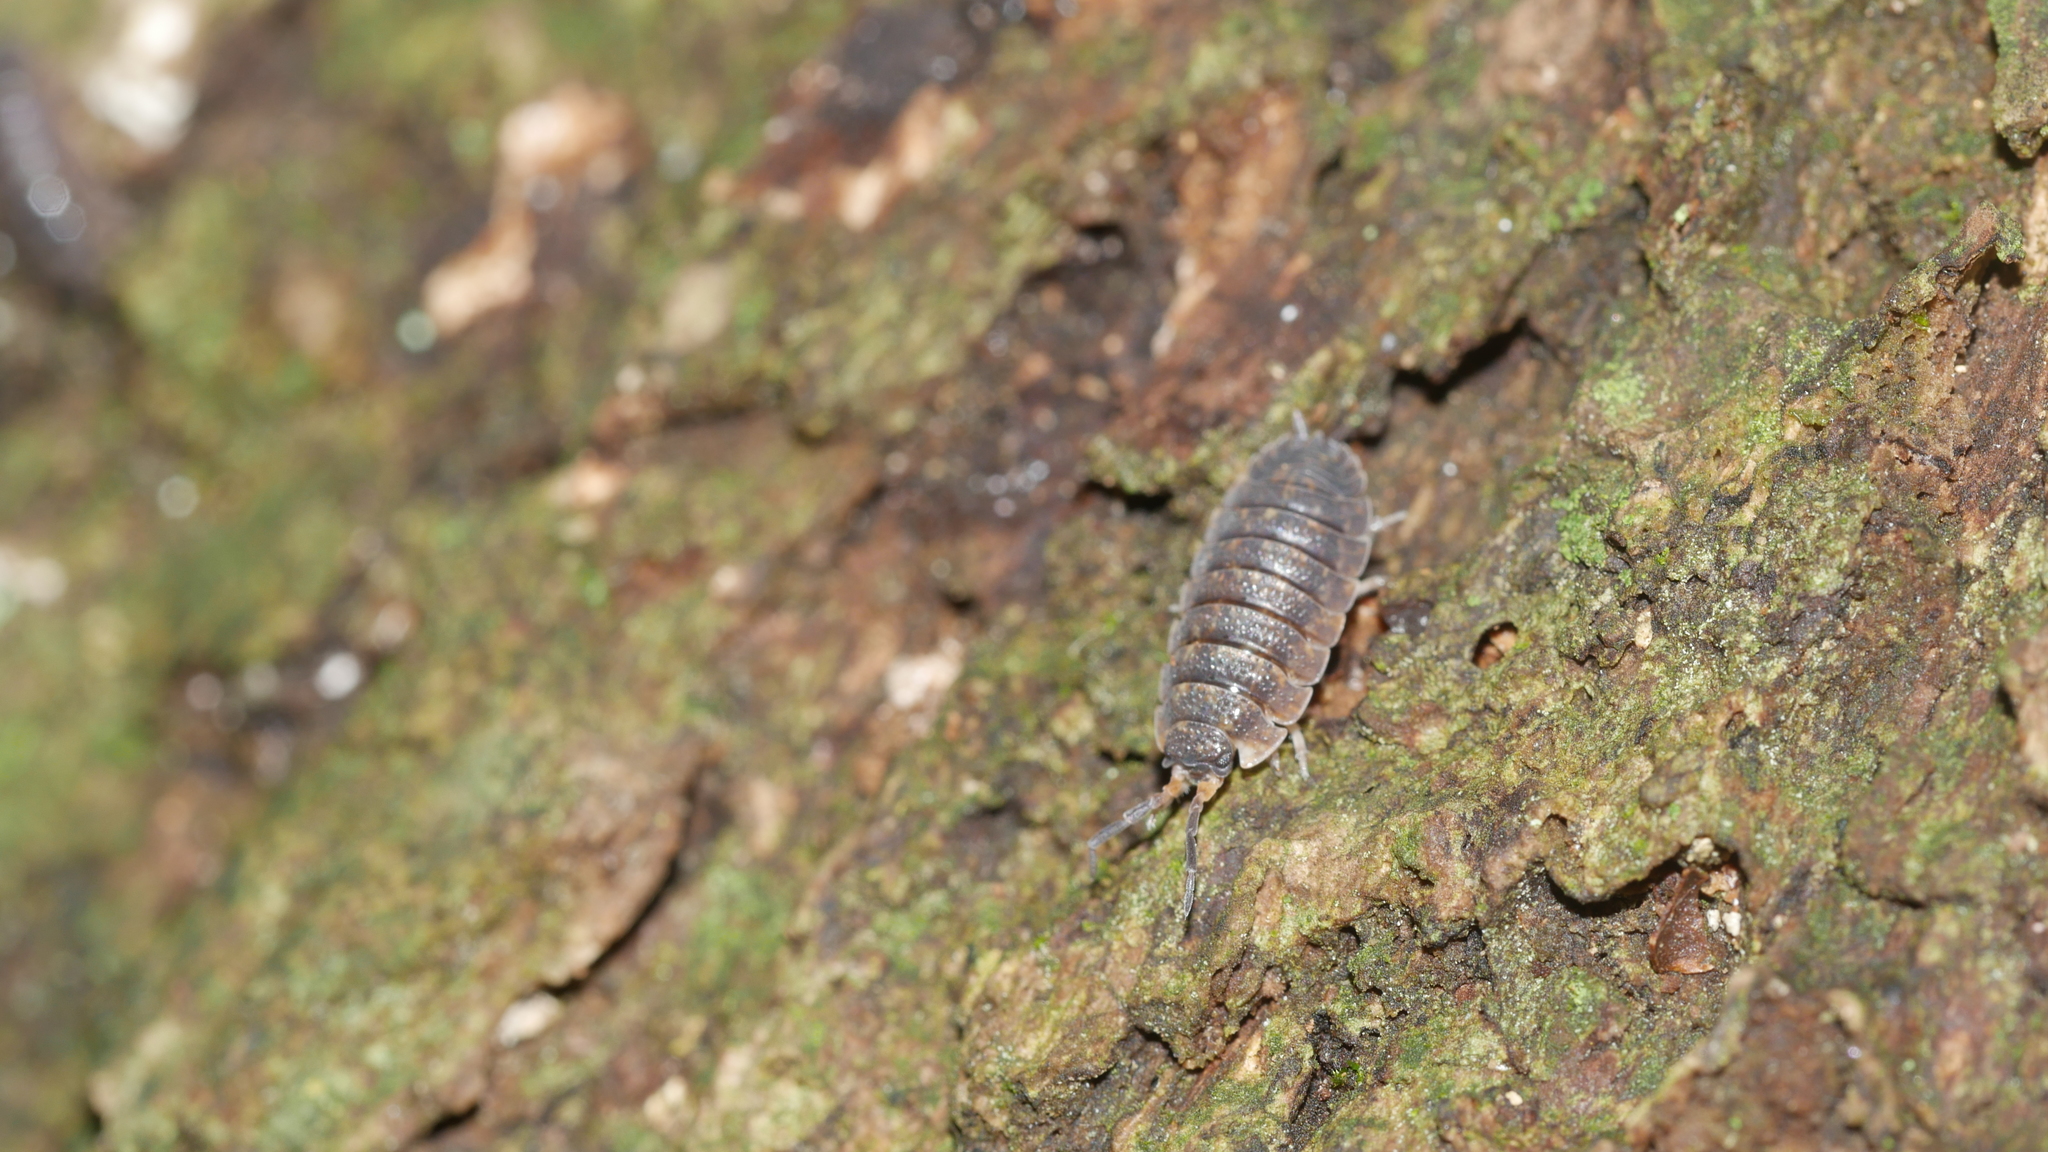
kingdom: Animalia
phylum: Arthropoda
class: Malacostraca
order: Isopoda
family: Porcellionidae
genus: Porcellio
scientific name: Porcellio scaber
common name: Common rough woodlouse
